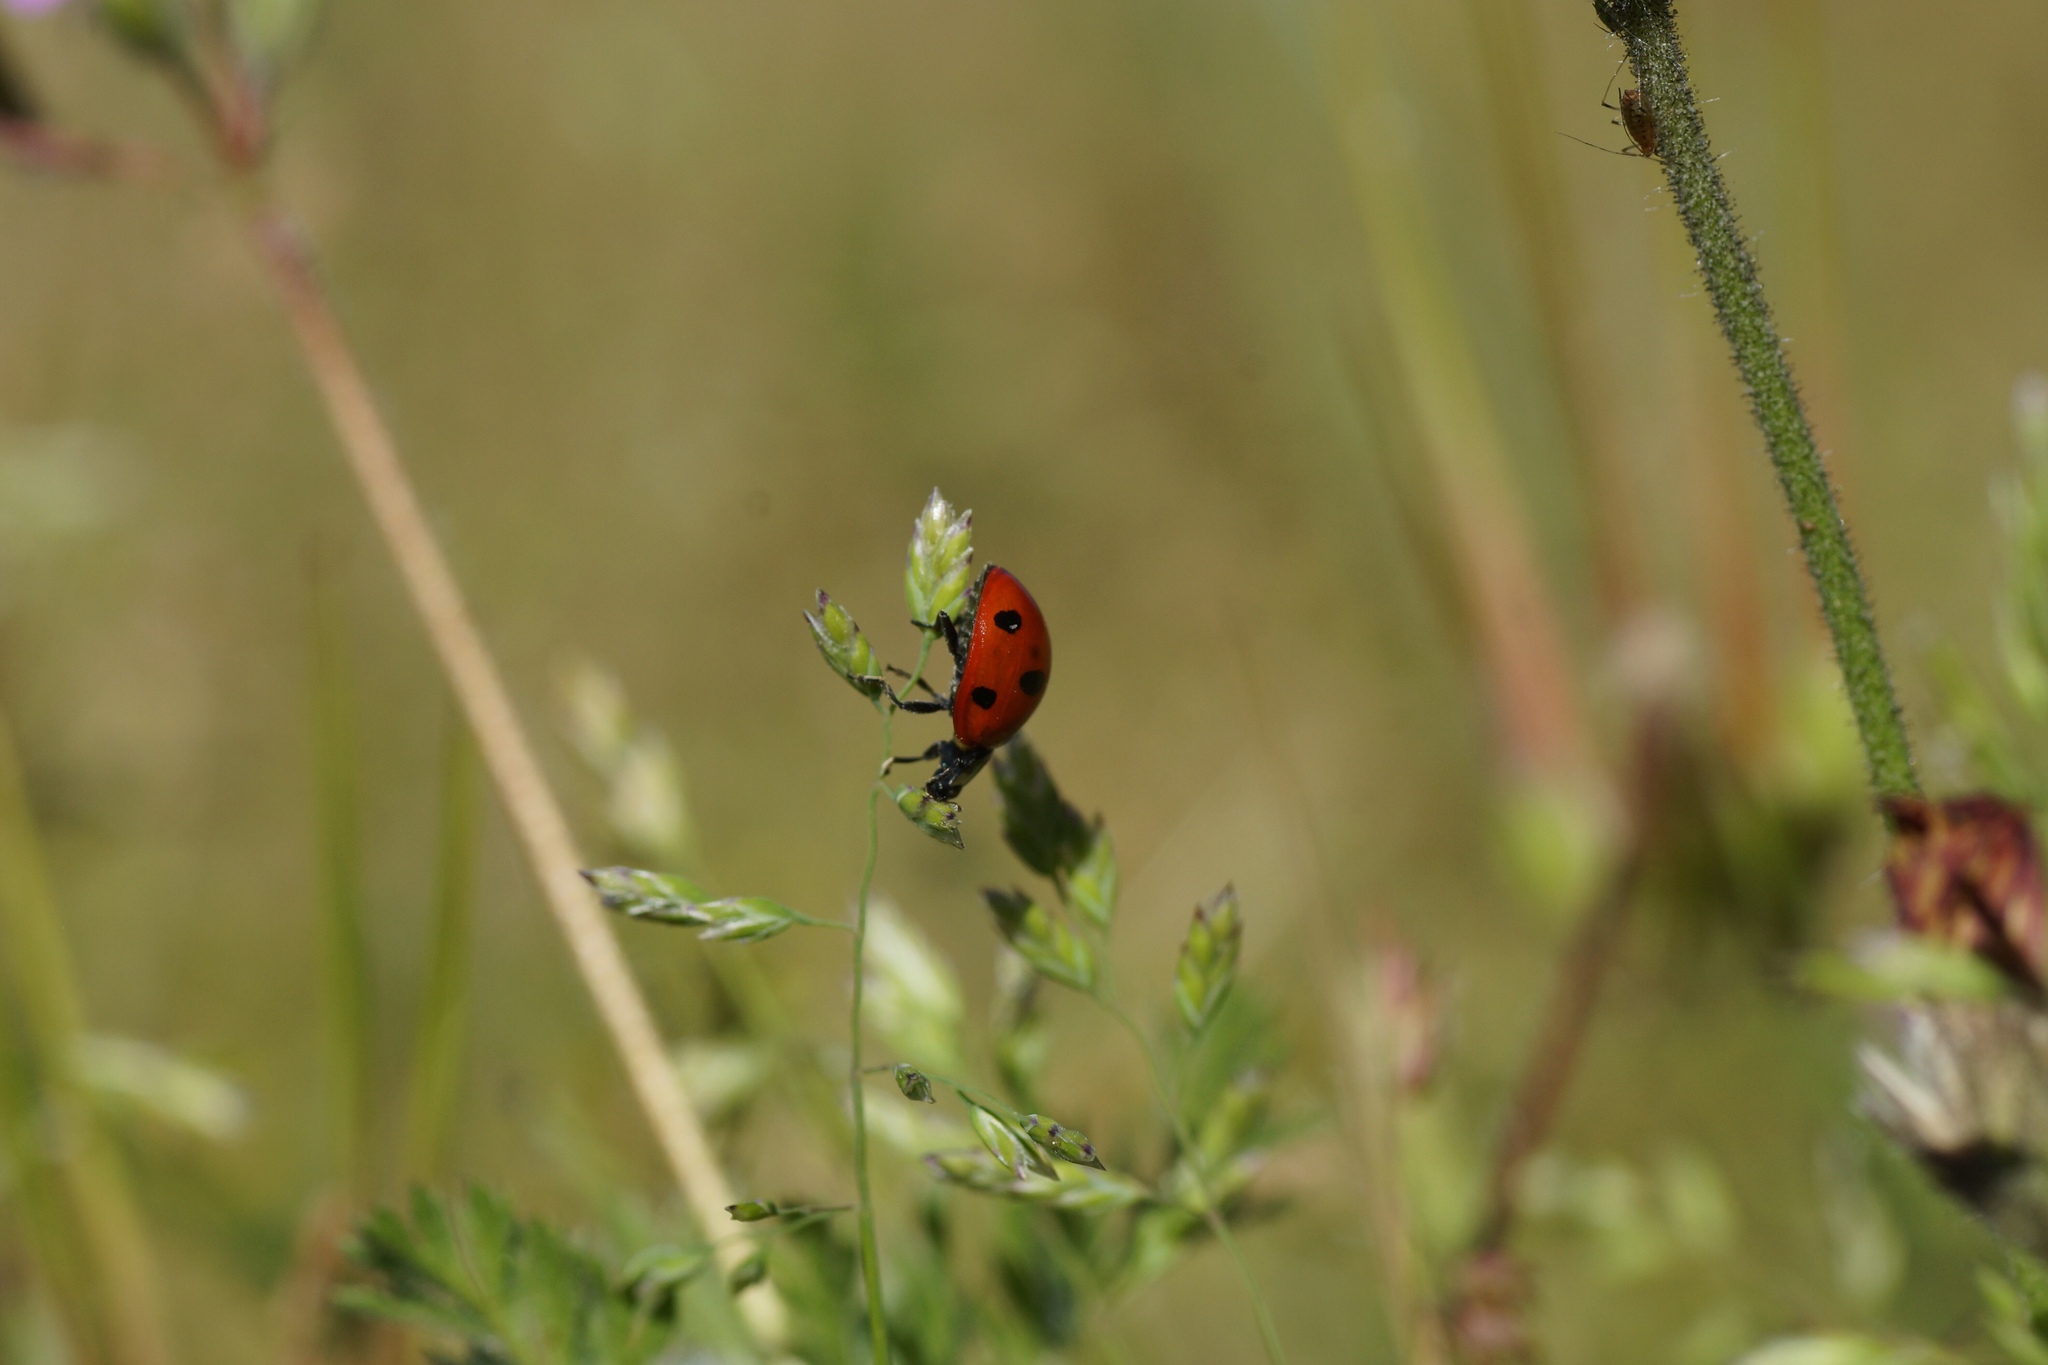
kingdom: Animalia
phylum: Arthropoda
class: Insecta
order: Coleoptera
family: Coccinellidae
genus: Coccinella
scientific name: Coccinella septempunctata
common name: Sevenspotted lady beetle
